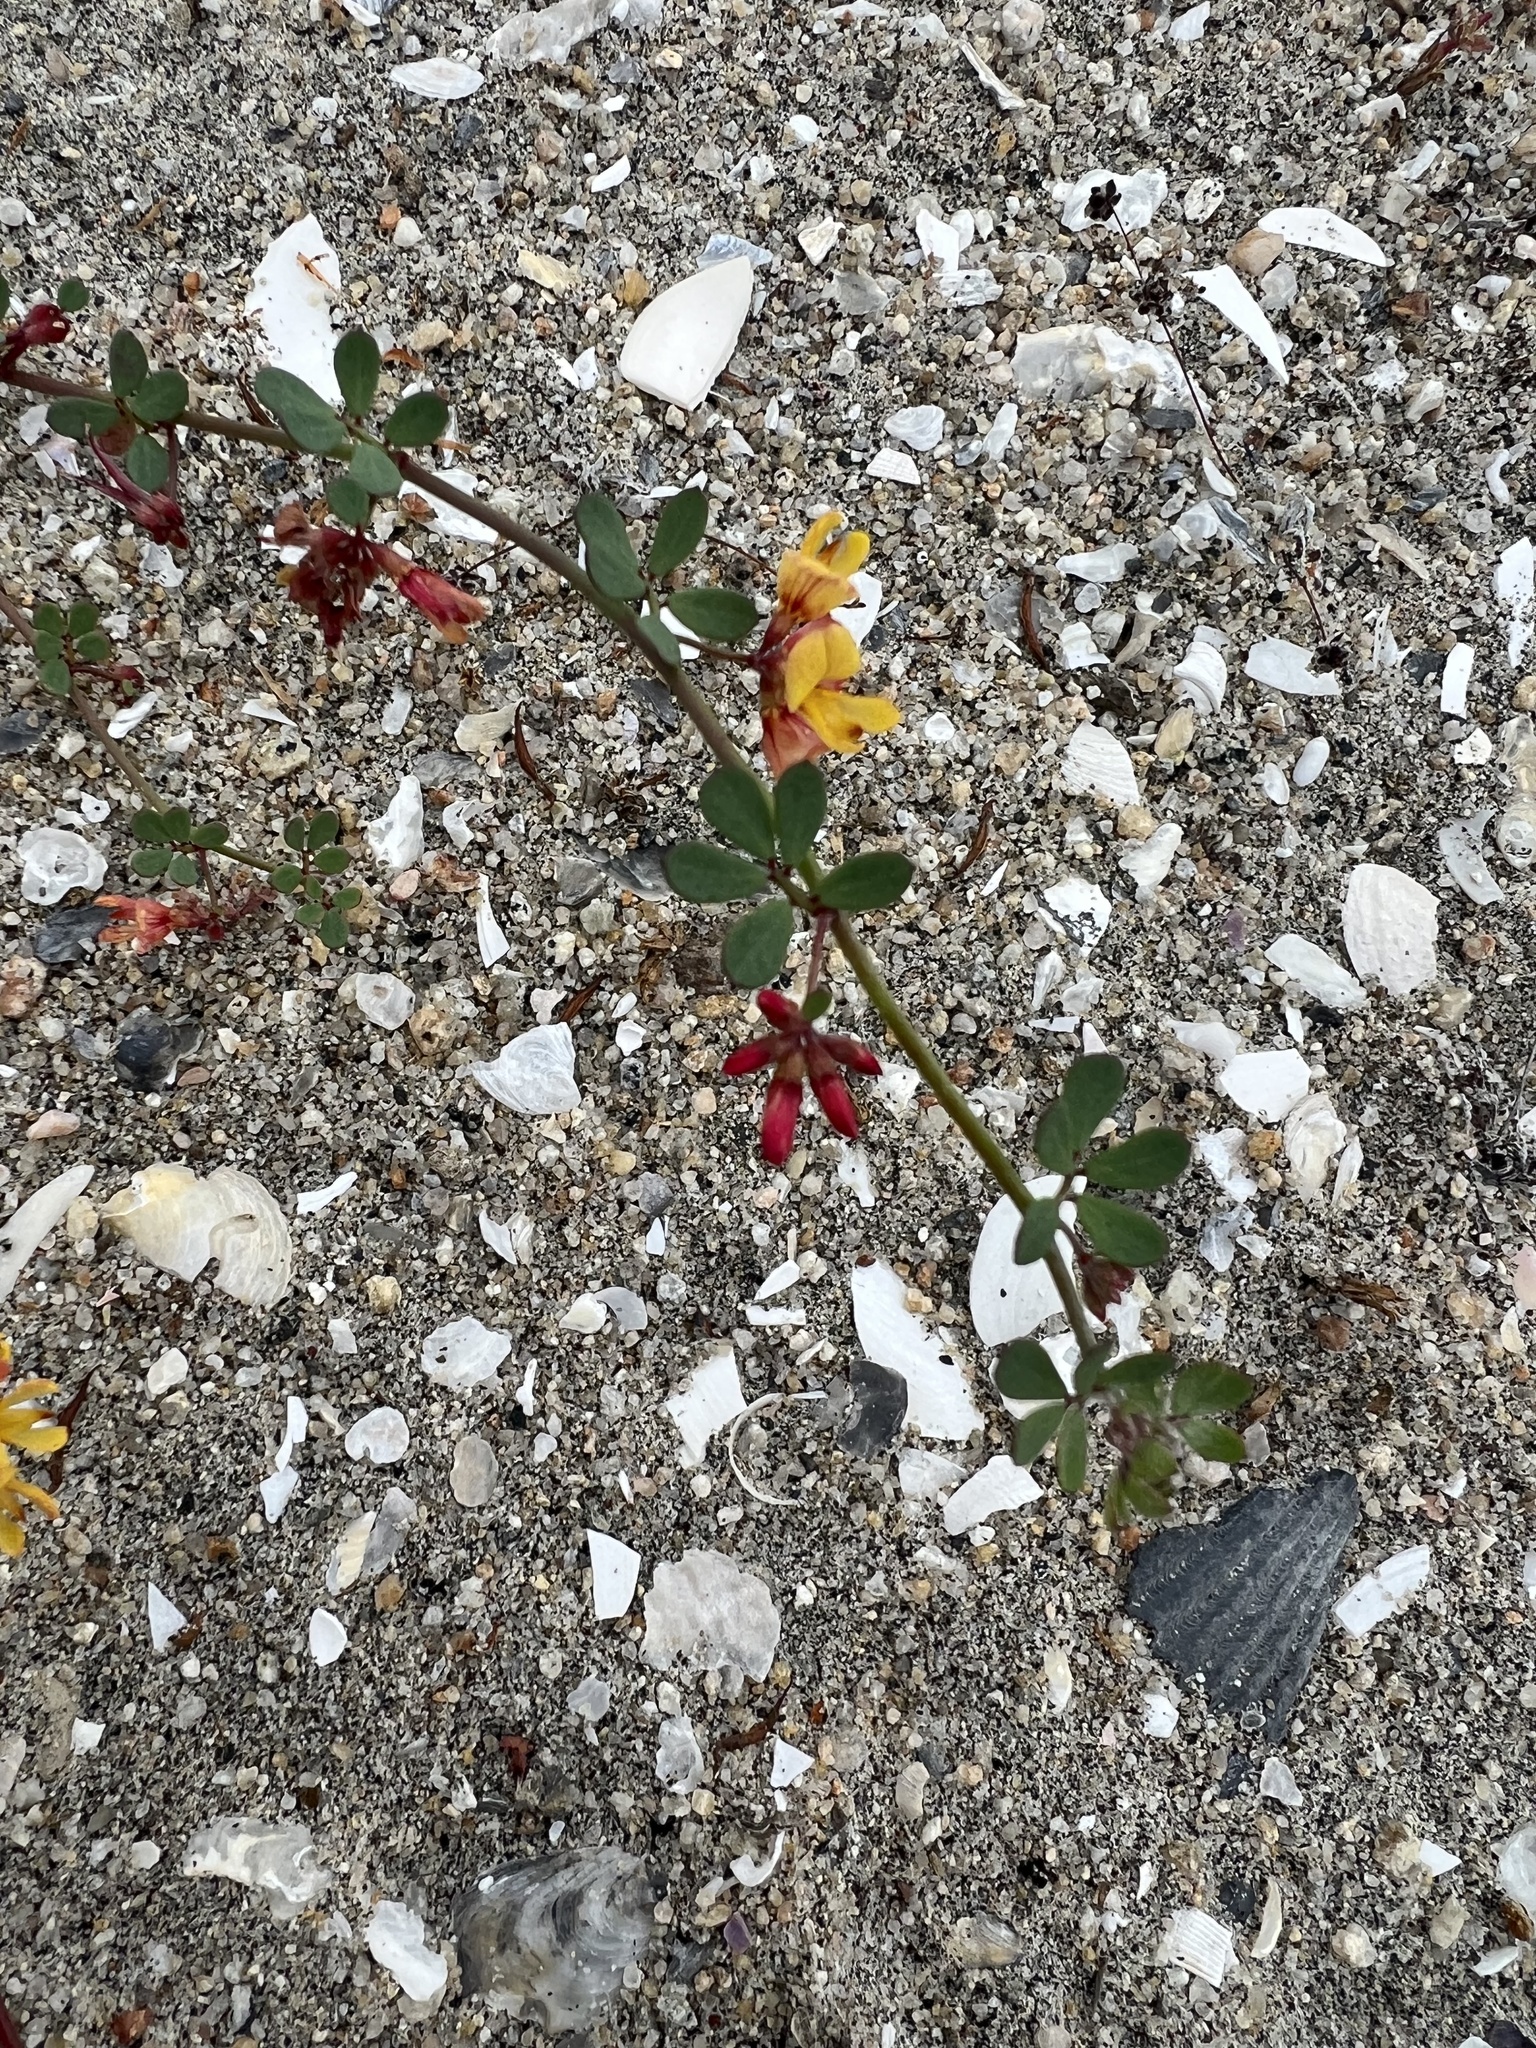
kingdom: Plantae
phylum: Tracheophyta
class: Magnoliopsida
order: Fabales
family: Fabaceae
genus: Acmispon
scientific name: Acmispon prostratus
